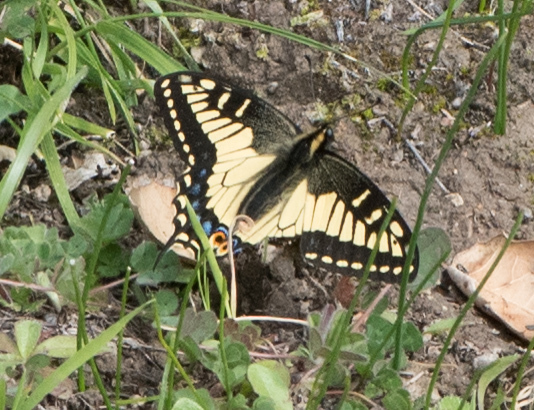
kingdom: Animalia
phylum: Arthropoda
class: Insecta
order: Lepidoptera
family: Papilionidae
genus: Papilio
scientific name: Papilio zelicaon
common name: Anise swallowtail
